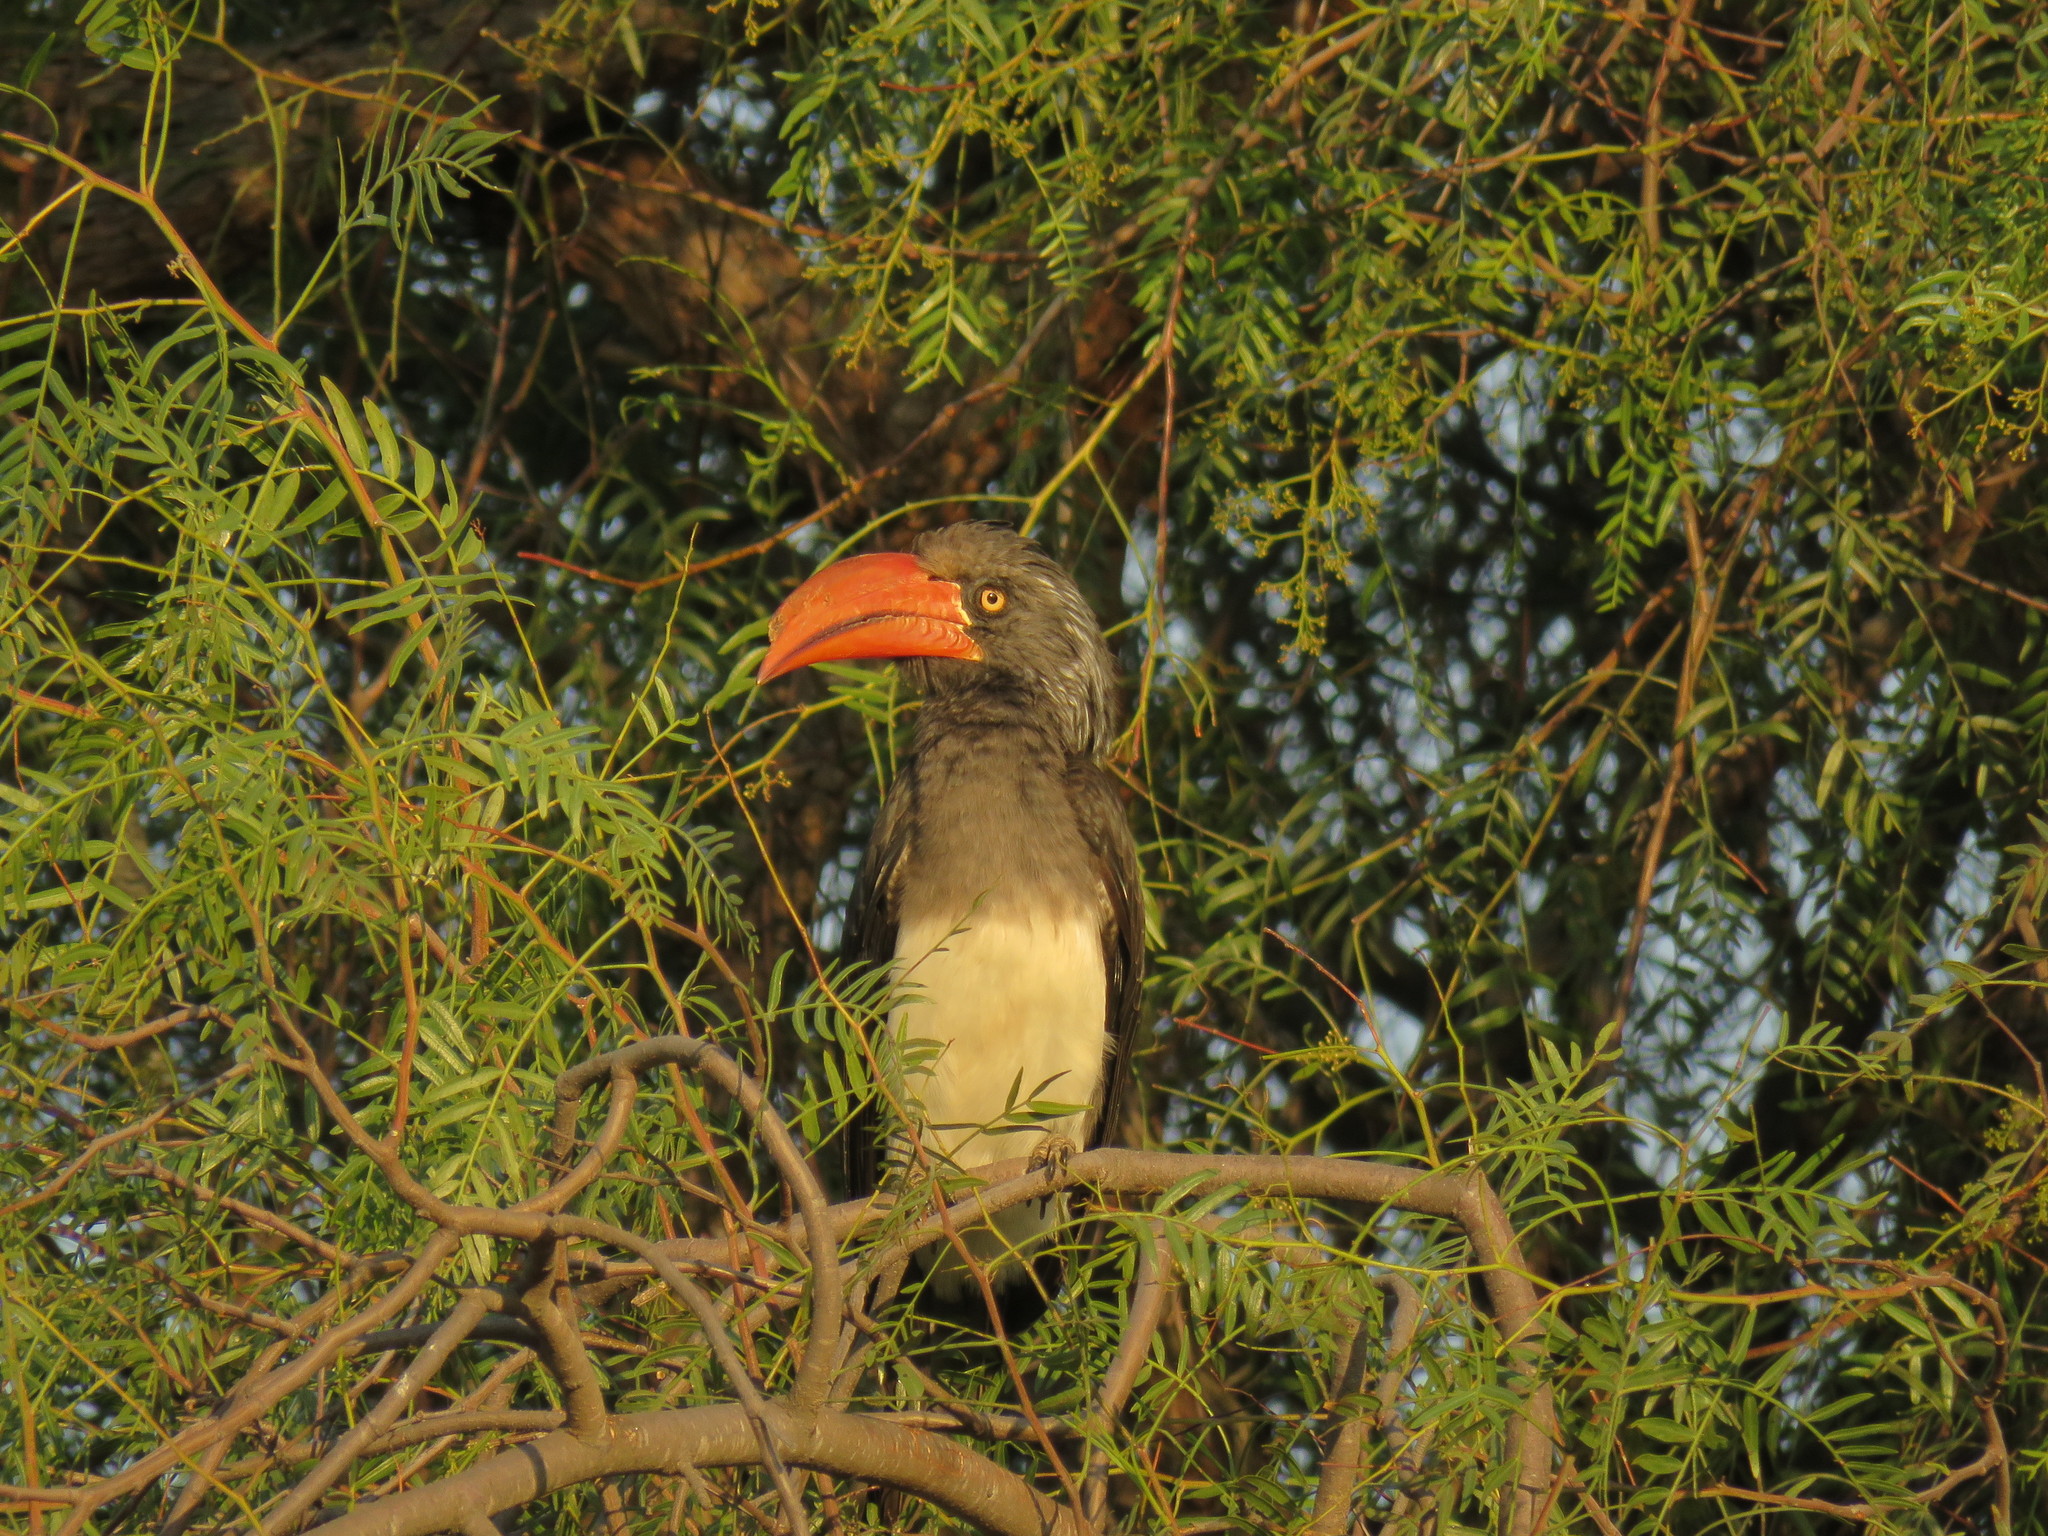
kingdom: Animalia
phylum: Chordata
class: Aves
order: Bucerotiformes
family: Bucerotidae
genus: Lophoceros
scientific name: Lophoceros alboterminatus
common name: Crowned hornbill
